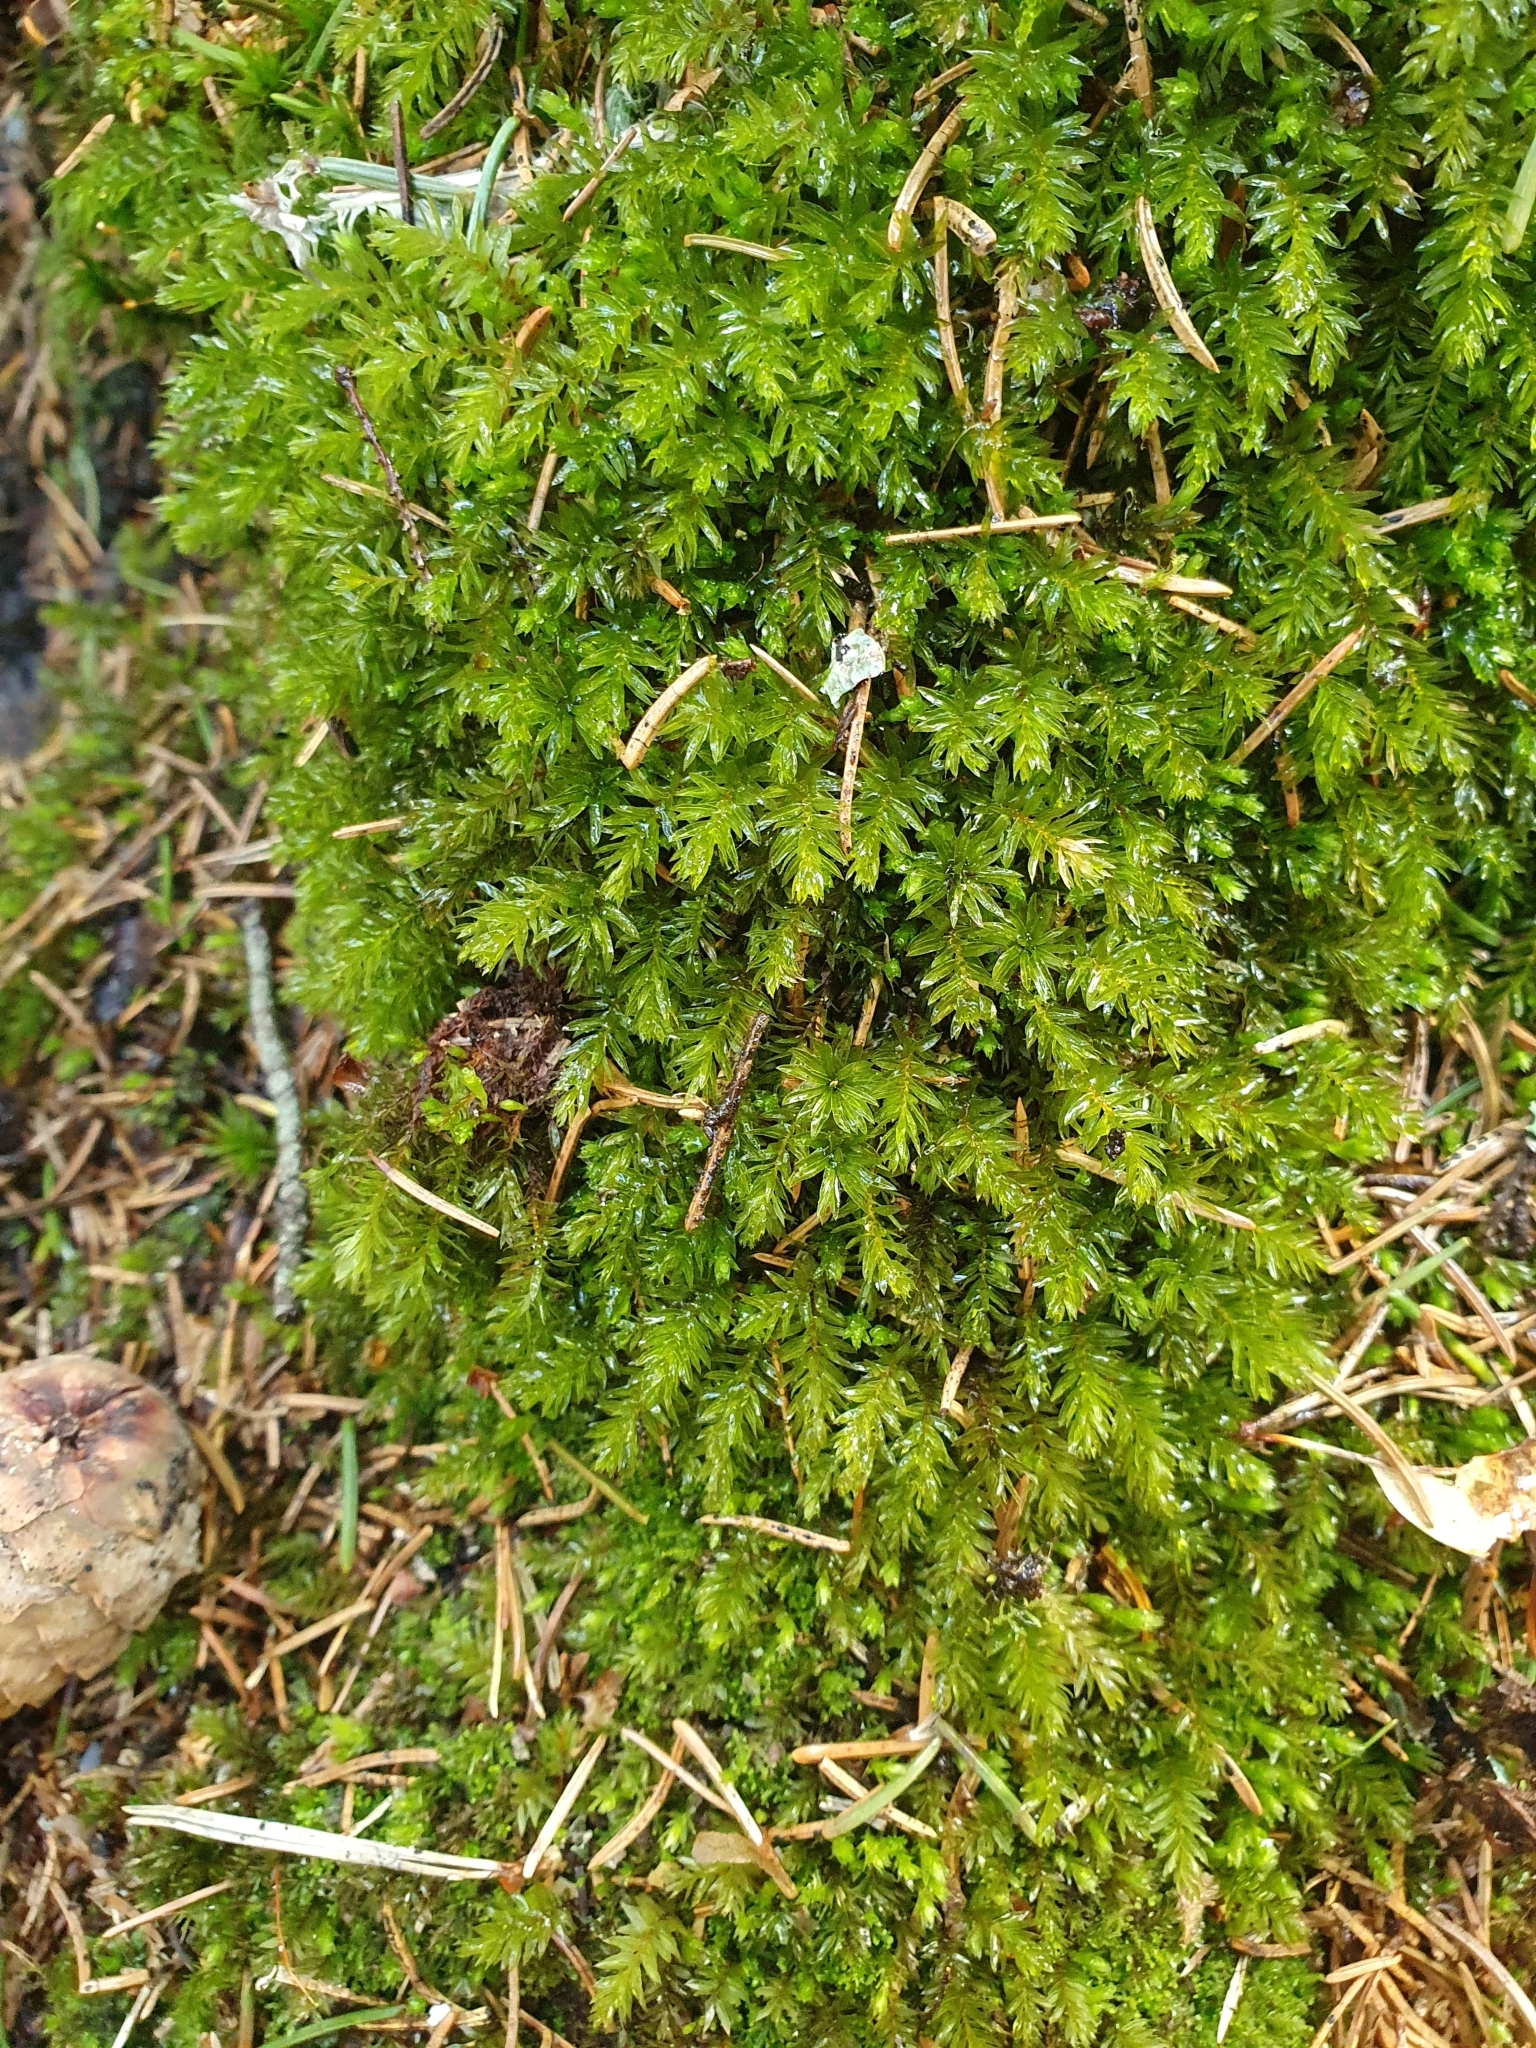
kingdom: Plantae
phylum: Bryophyta
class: Bryopsida
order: Bryales
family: Mniaceae
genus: Mnium
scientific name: Mnium hornum
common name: Swan's-neck leafy moss
